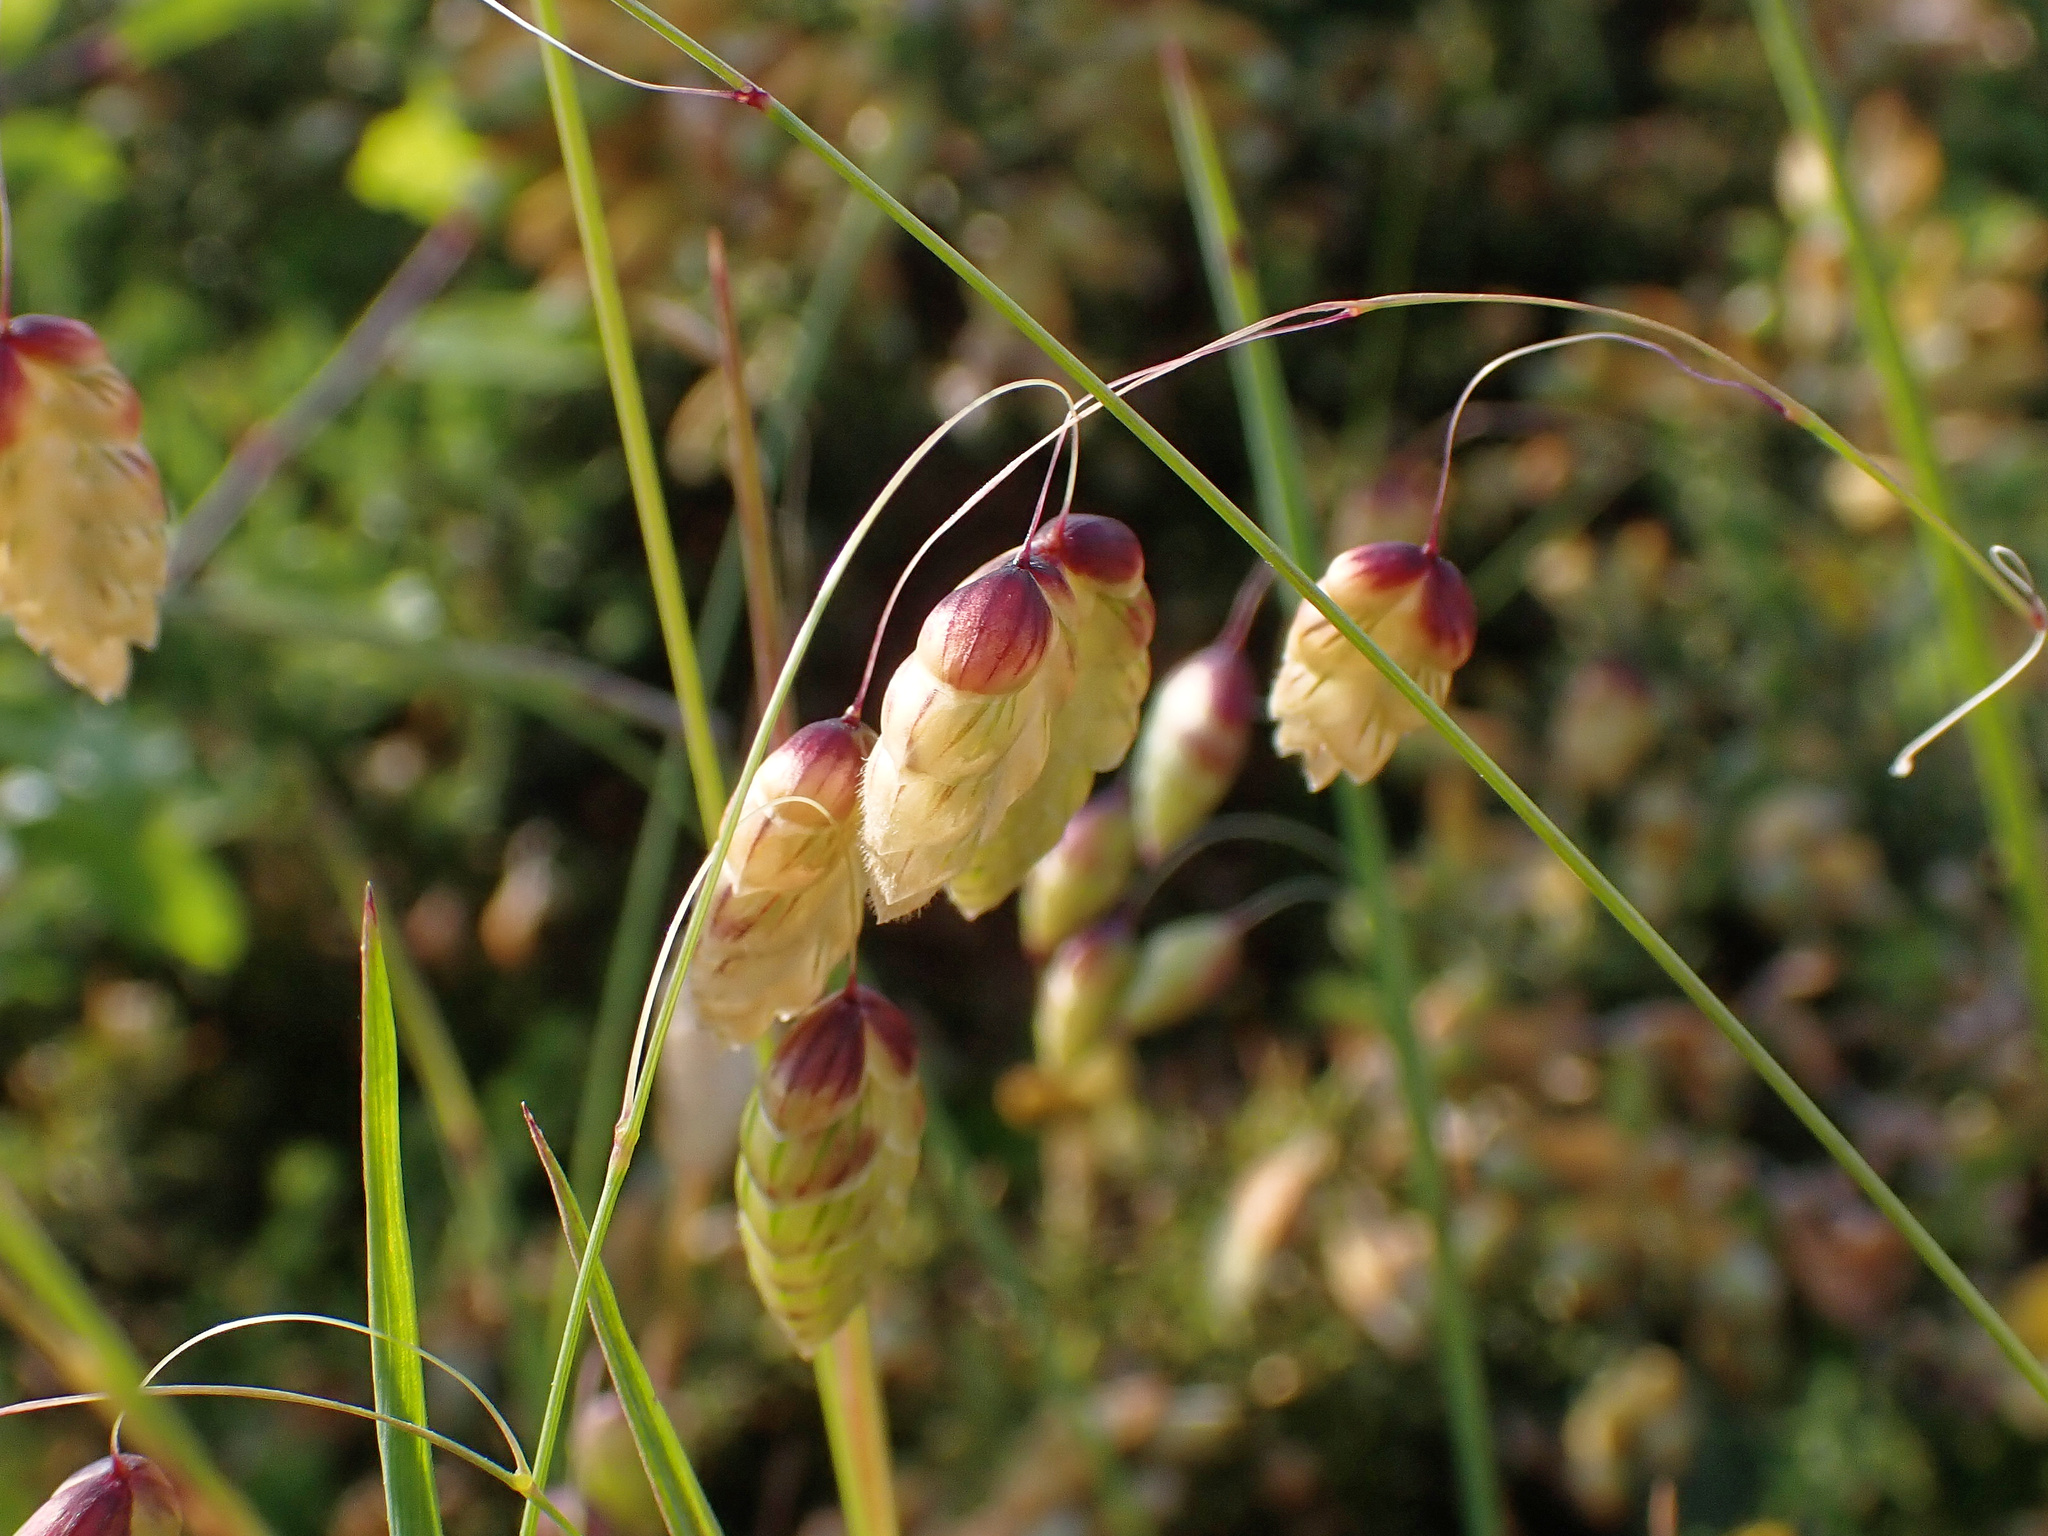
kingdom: Plantae
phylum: Tracheophyta
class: Liliopsida
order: Poales
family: Poaceae
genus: Briza
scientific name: Briza maxima
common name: Big quakinggrass
